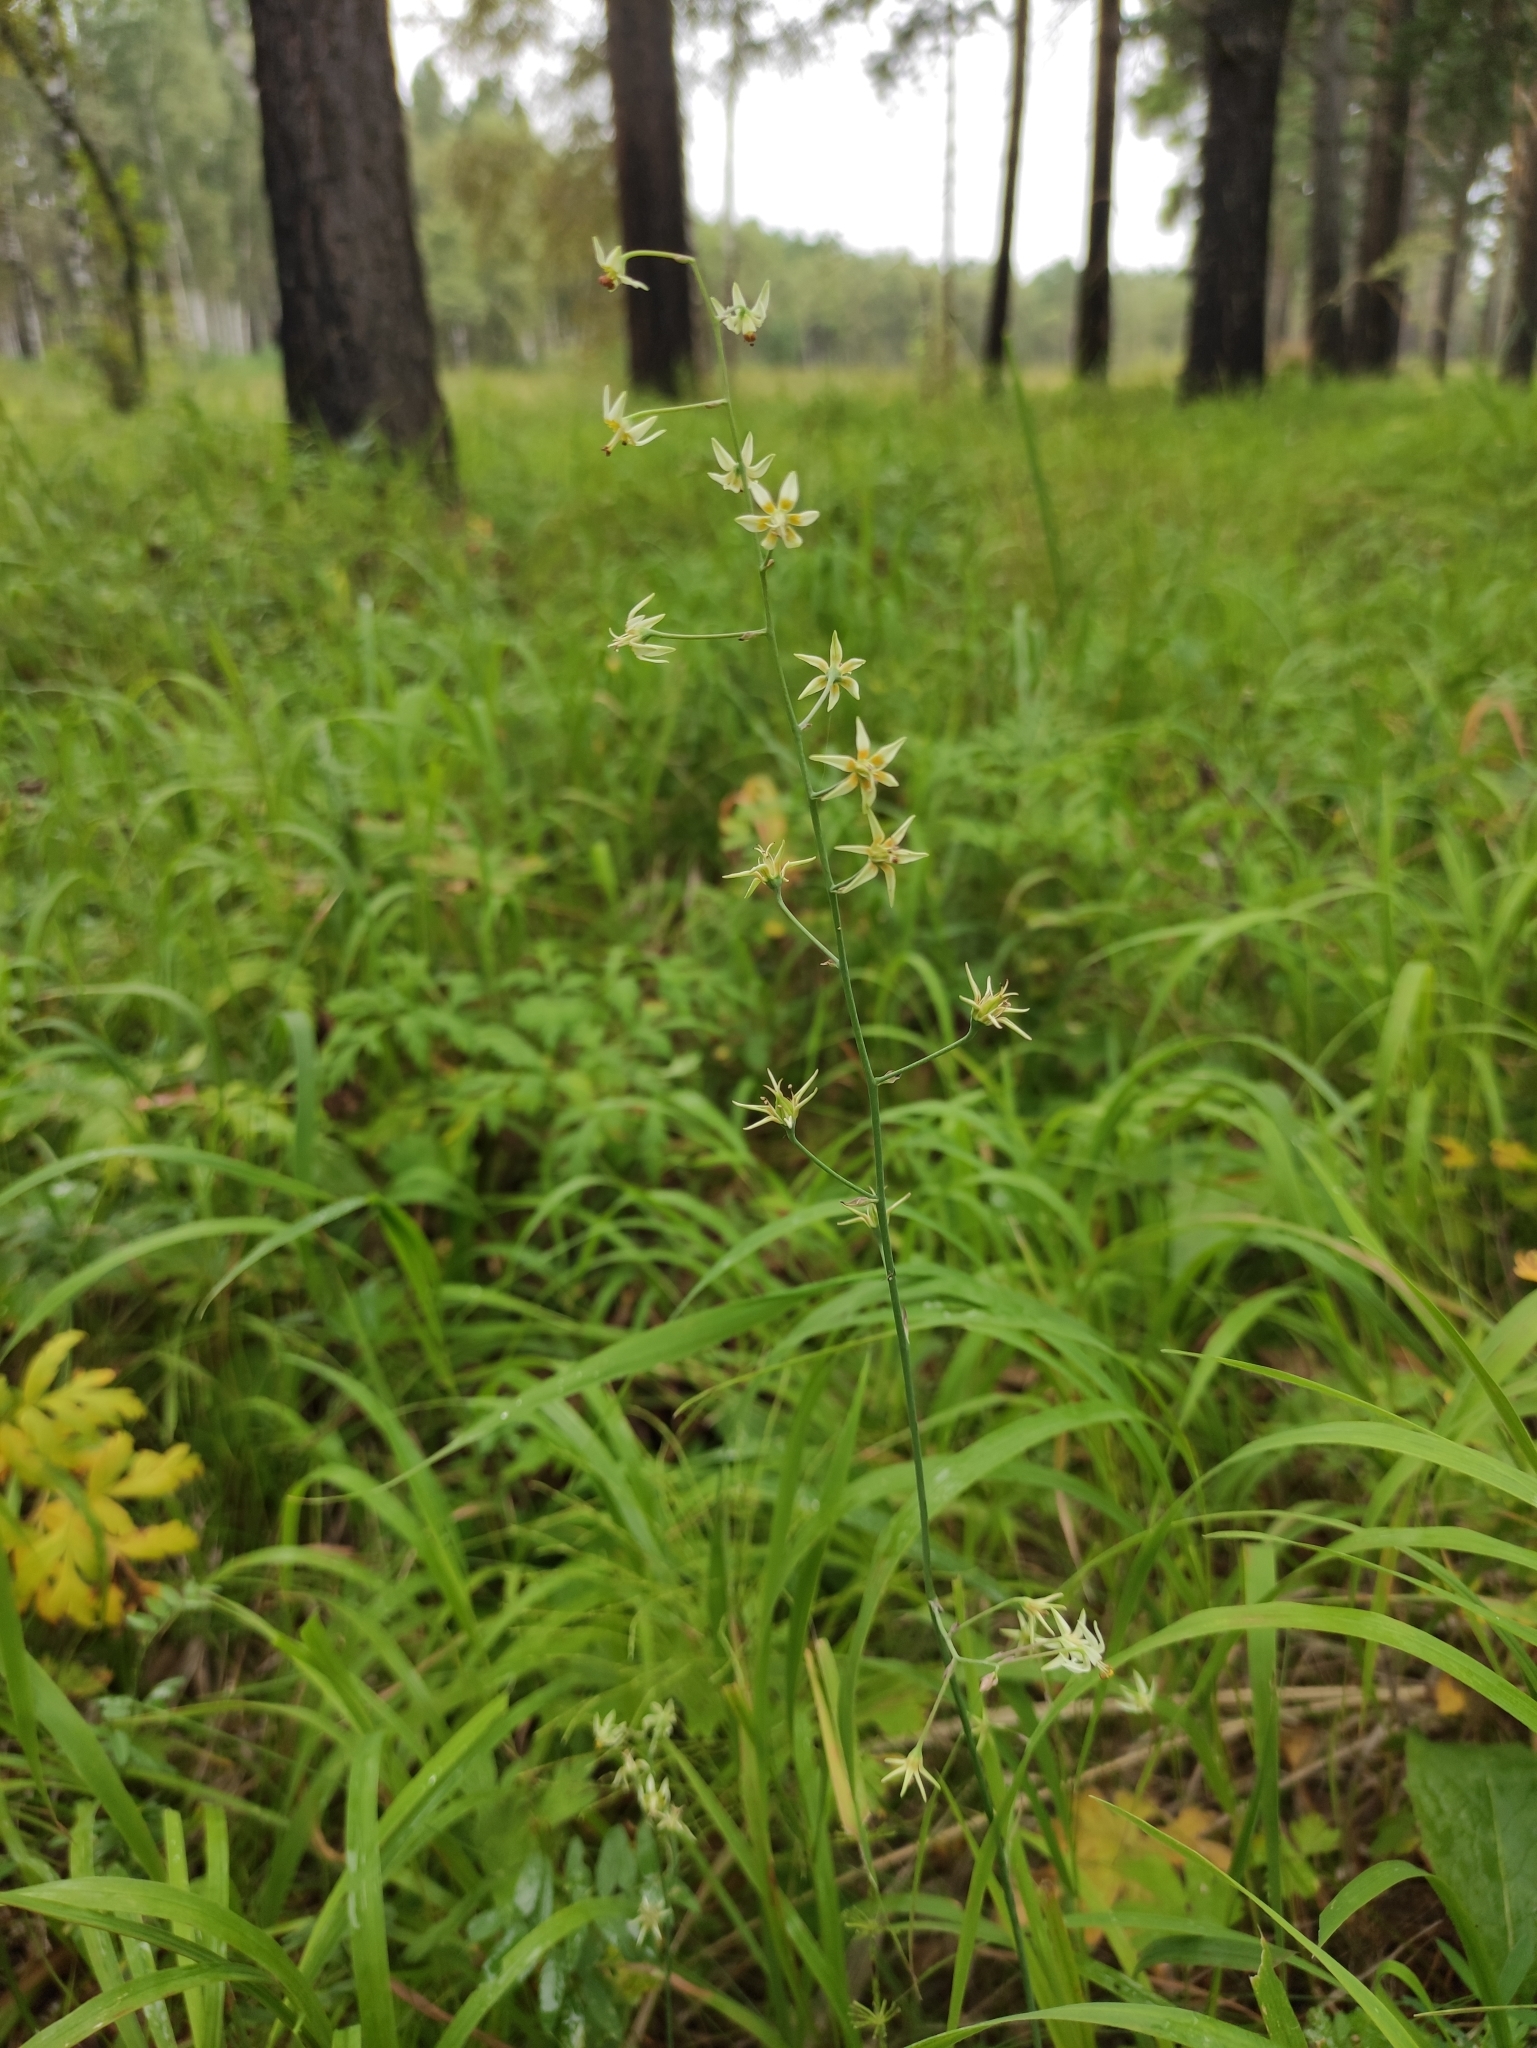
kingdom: Plantae
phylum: Tracheophyta
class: Liliopsida
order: Liliales
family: Melanthiaceae
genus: Anticlea
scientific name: Anticlea sibirica
